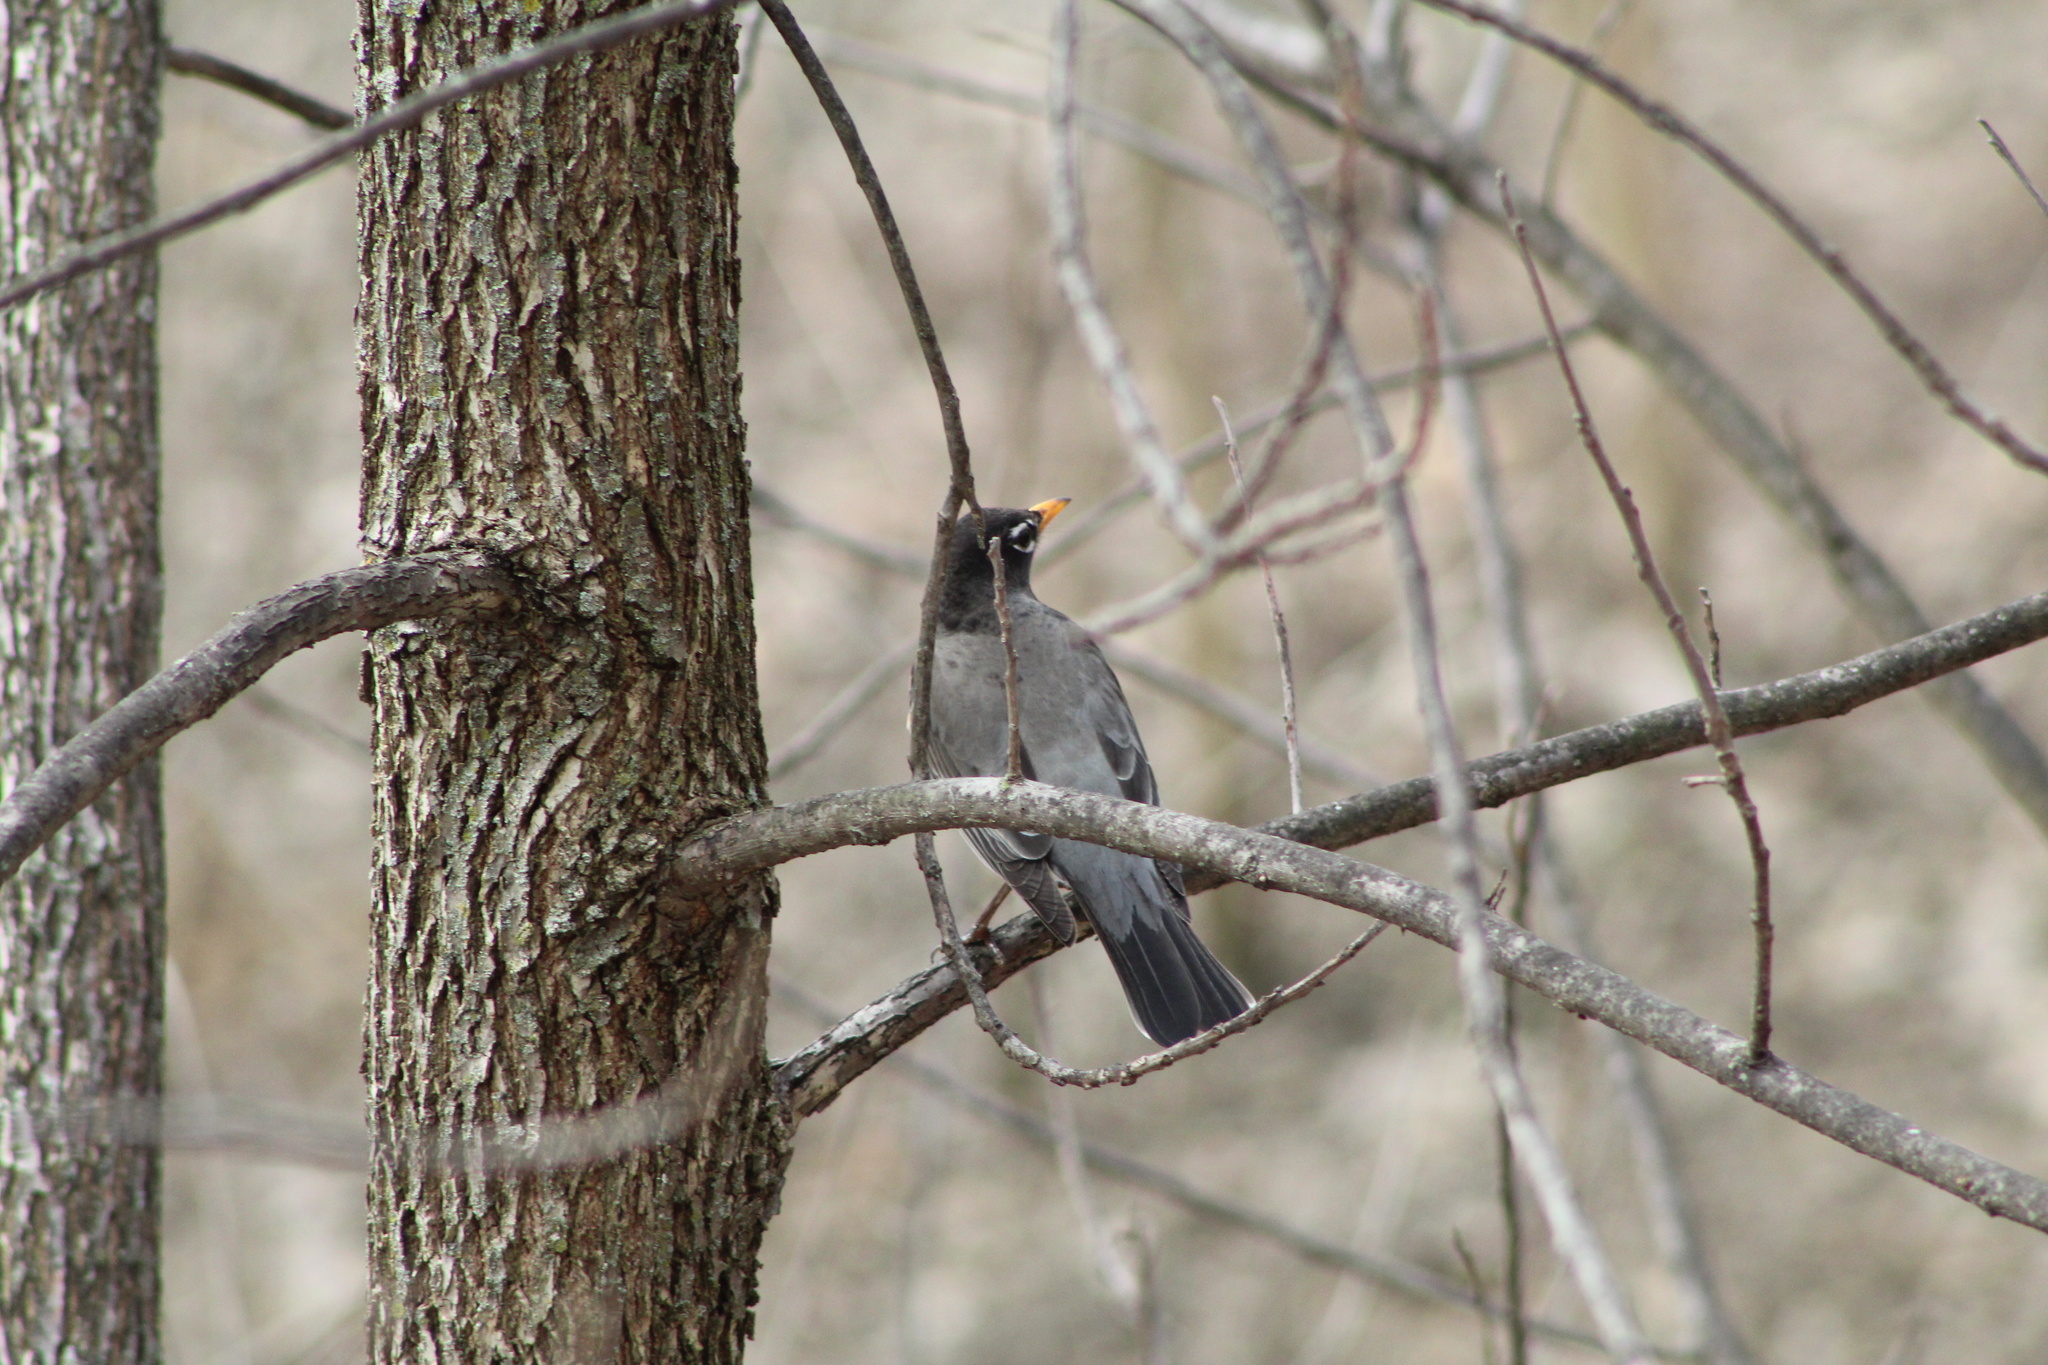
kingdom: Animalia
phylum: Chordata
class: Aves
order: Passeriformes
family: Turdidae
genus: Turdus
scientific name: Turdus migratorius
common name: American robin
